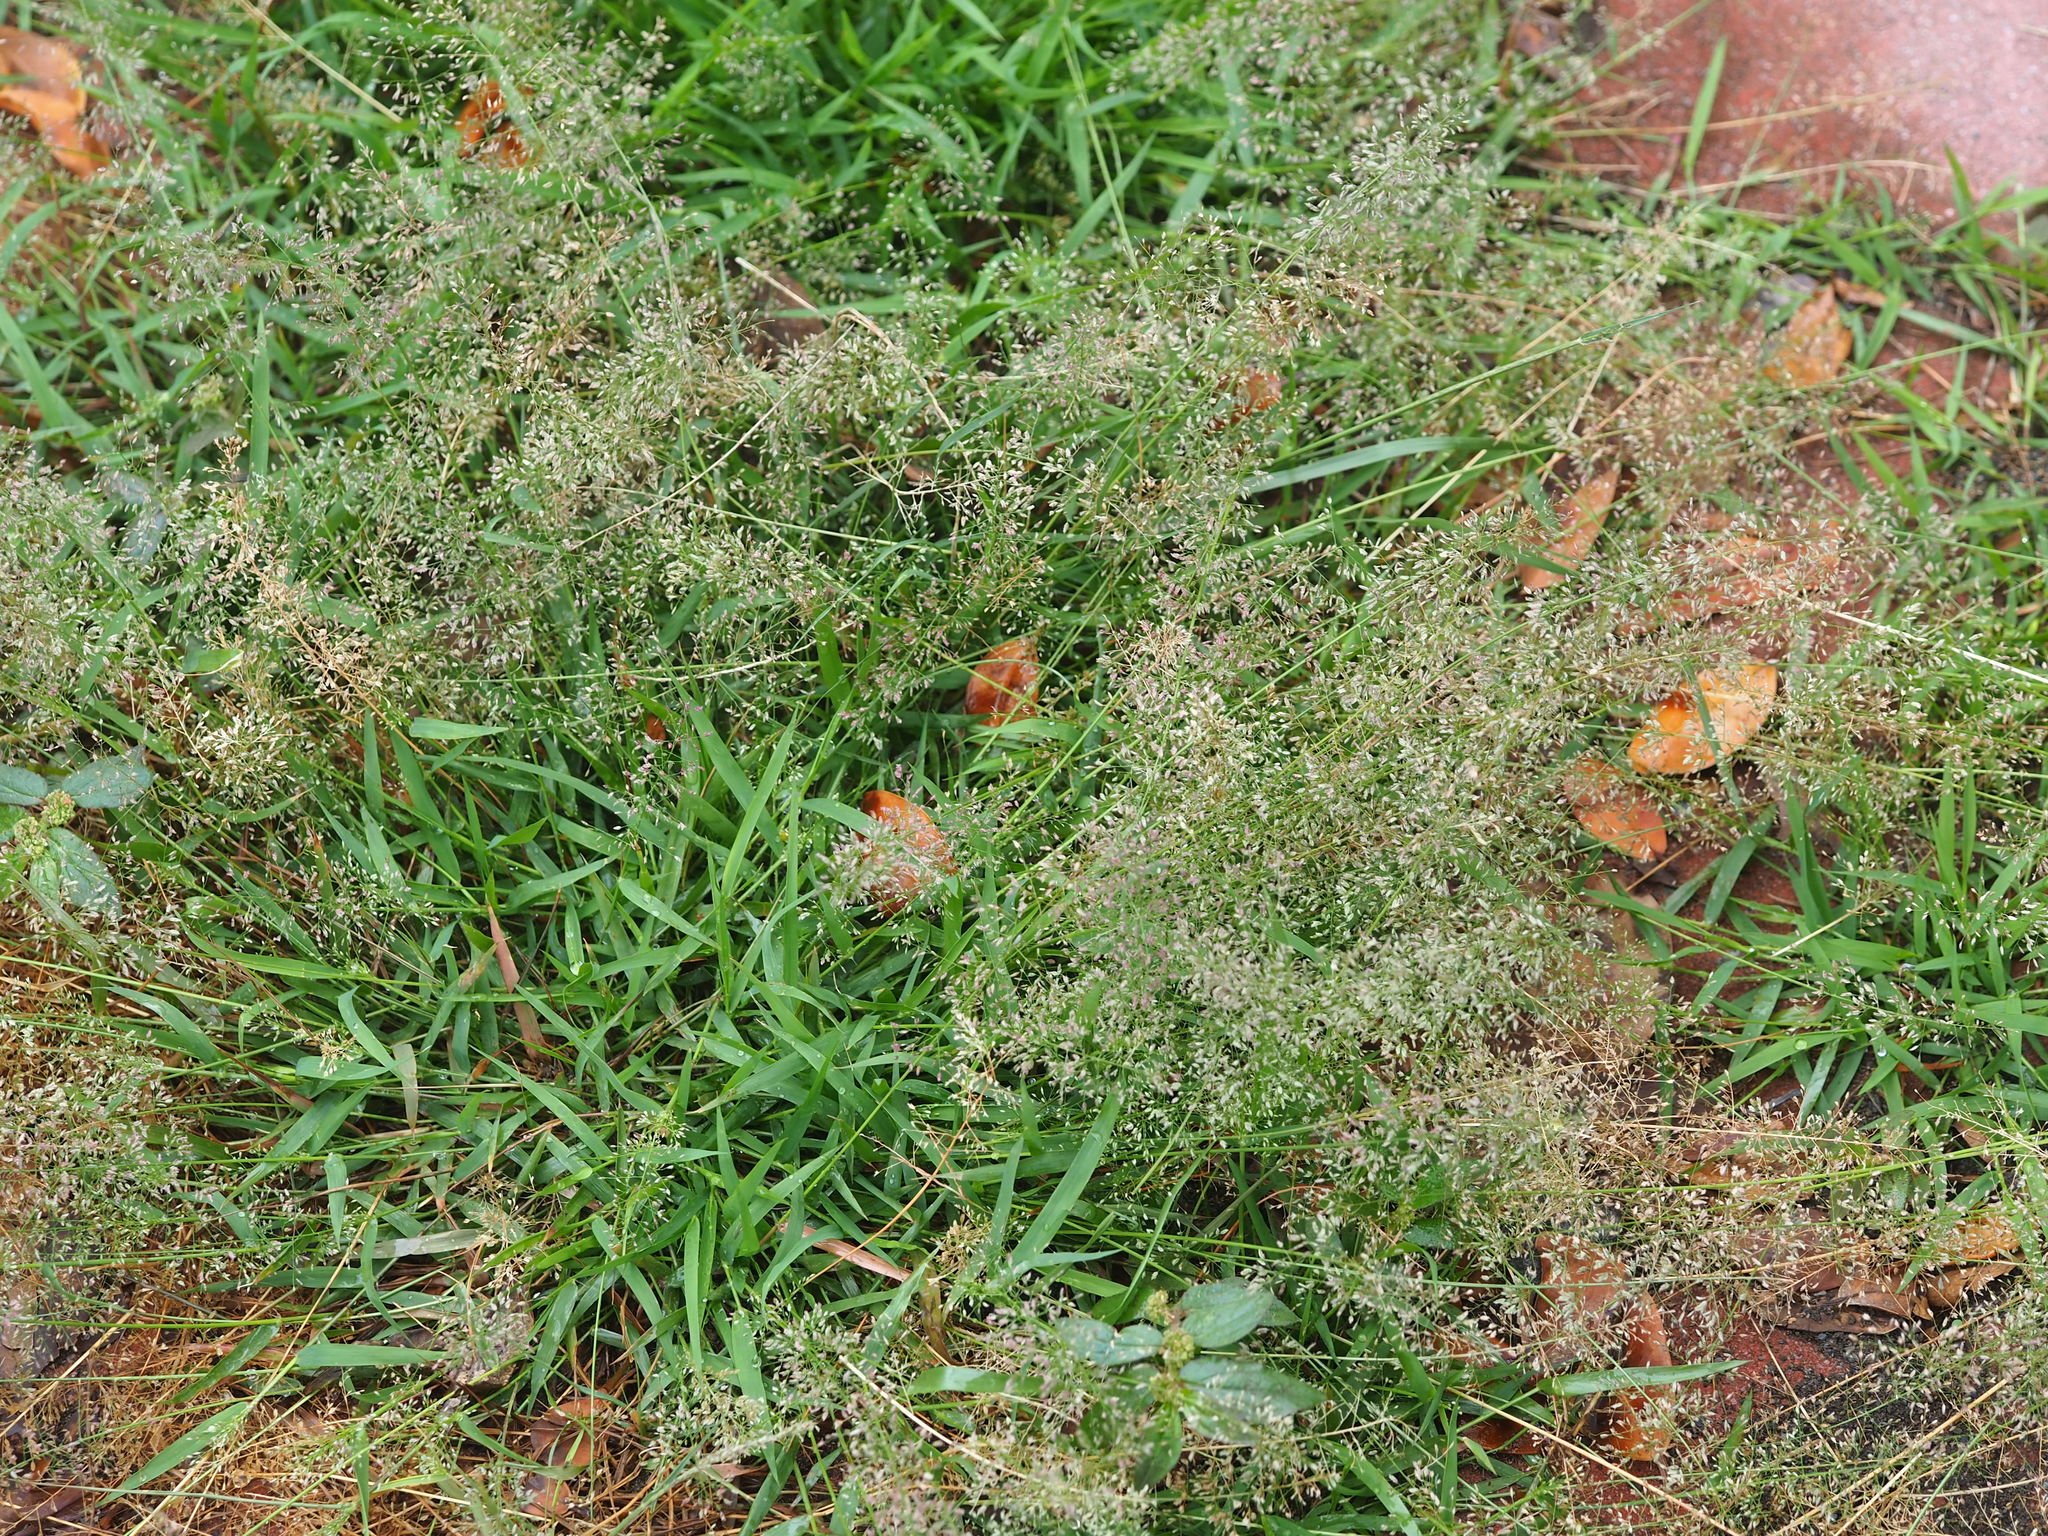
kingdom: Plantae
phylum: Tracheophyta
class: Liliopsida
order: Poales
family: Poaceae
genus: Eragrostis
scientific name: Eragrostis tenella
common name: Japanese lovegrass
